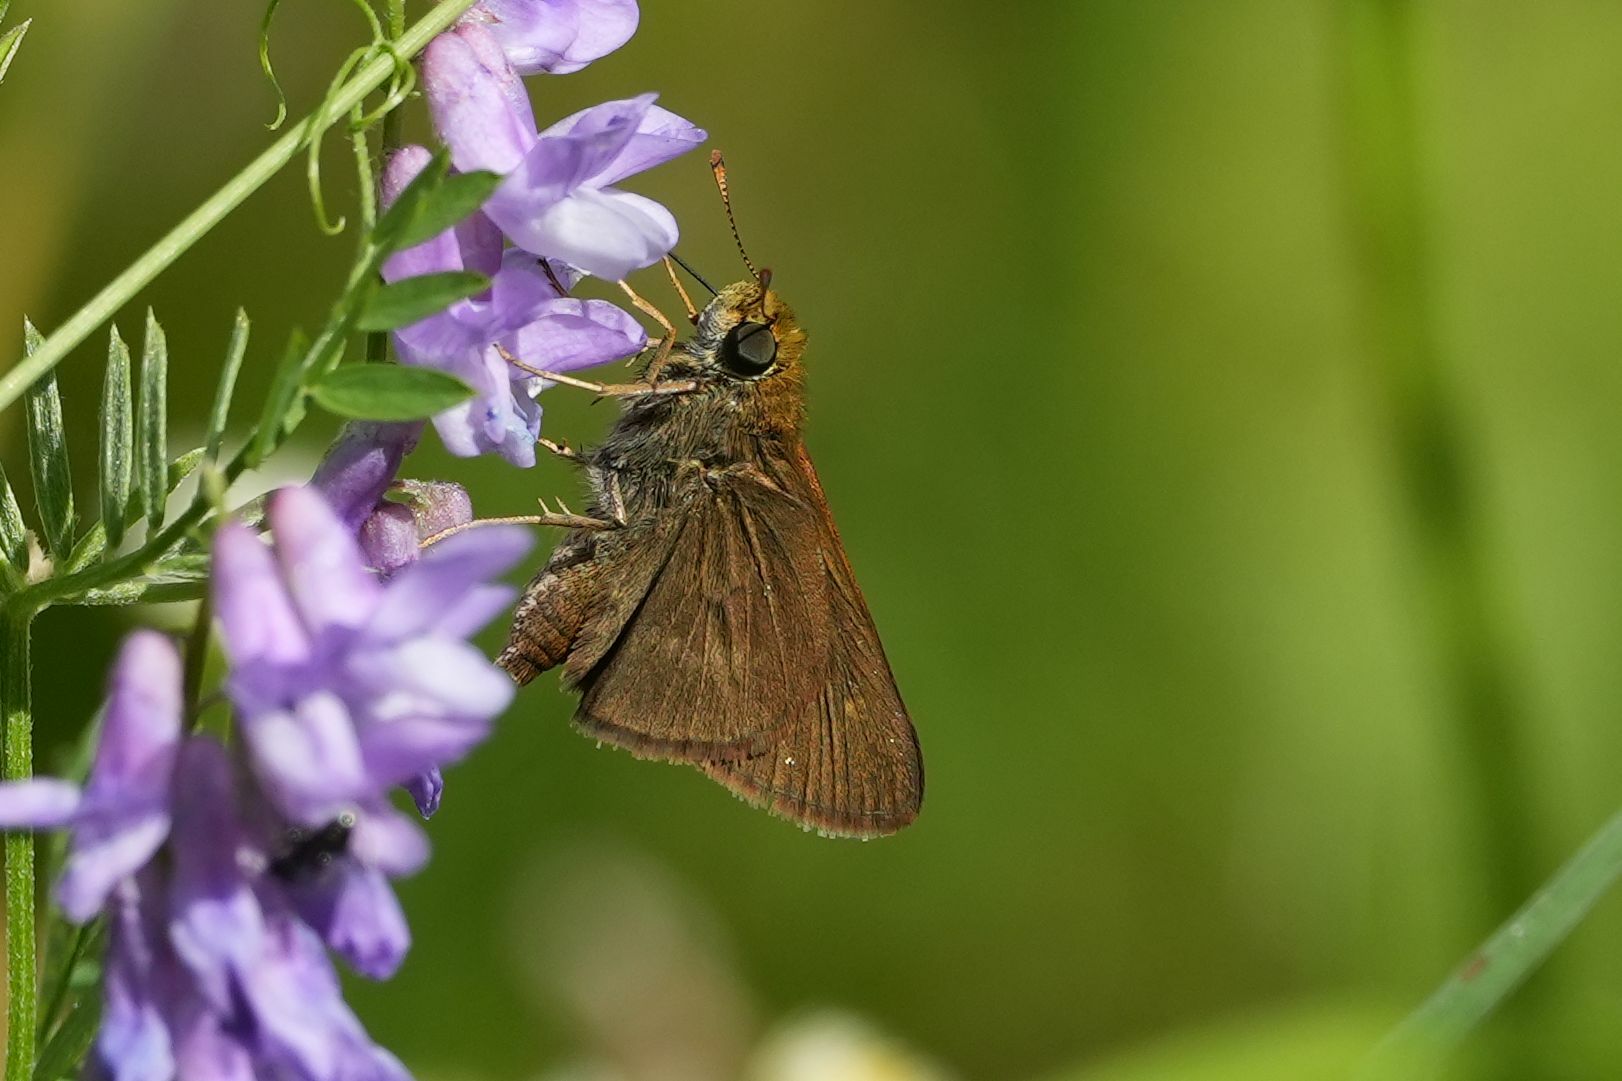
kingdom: Animalia
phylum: Arthropoda
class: Insecta
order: Lepidoptera
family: Hesperiidae
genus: Euphyes
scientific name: Euphyes vestris
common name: Dun skipper
